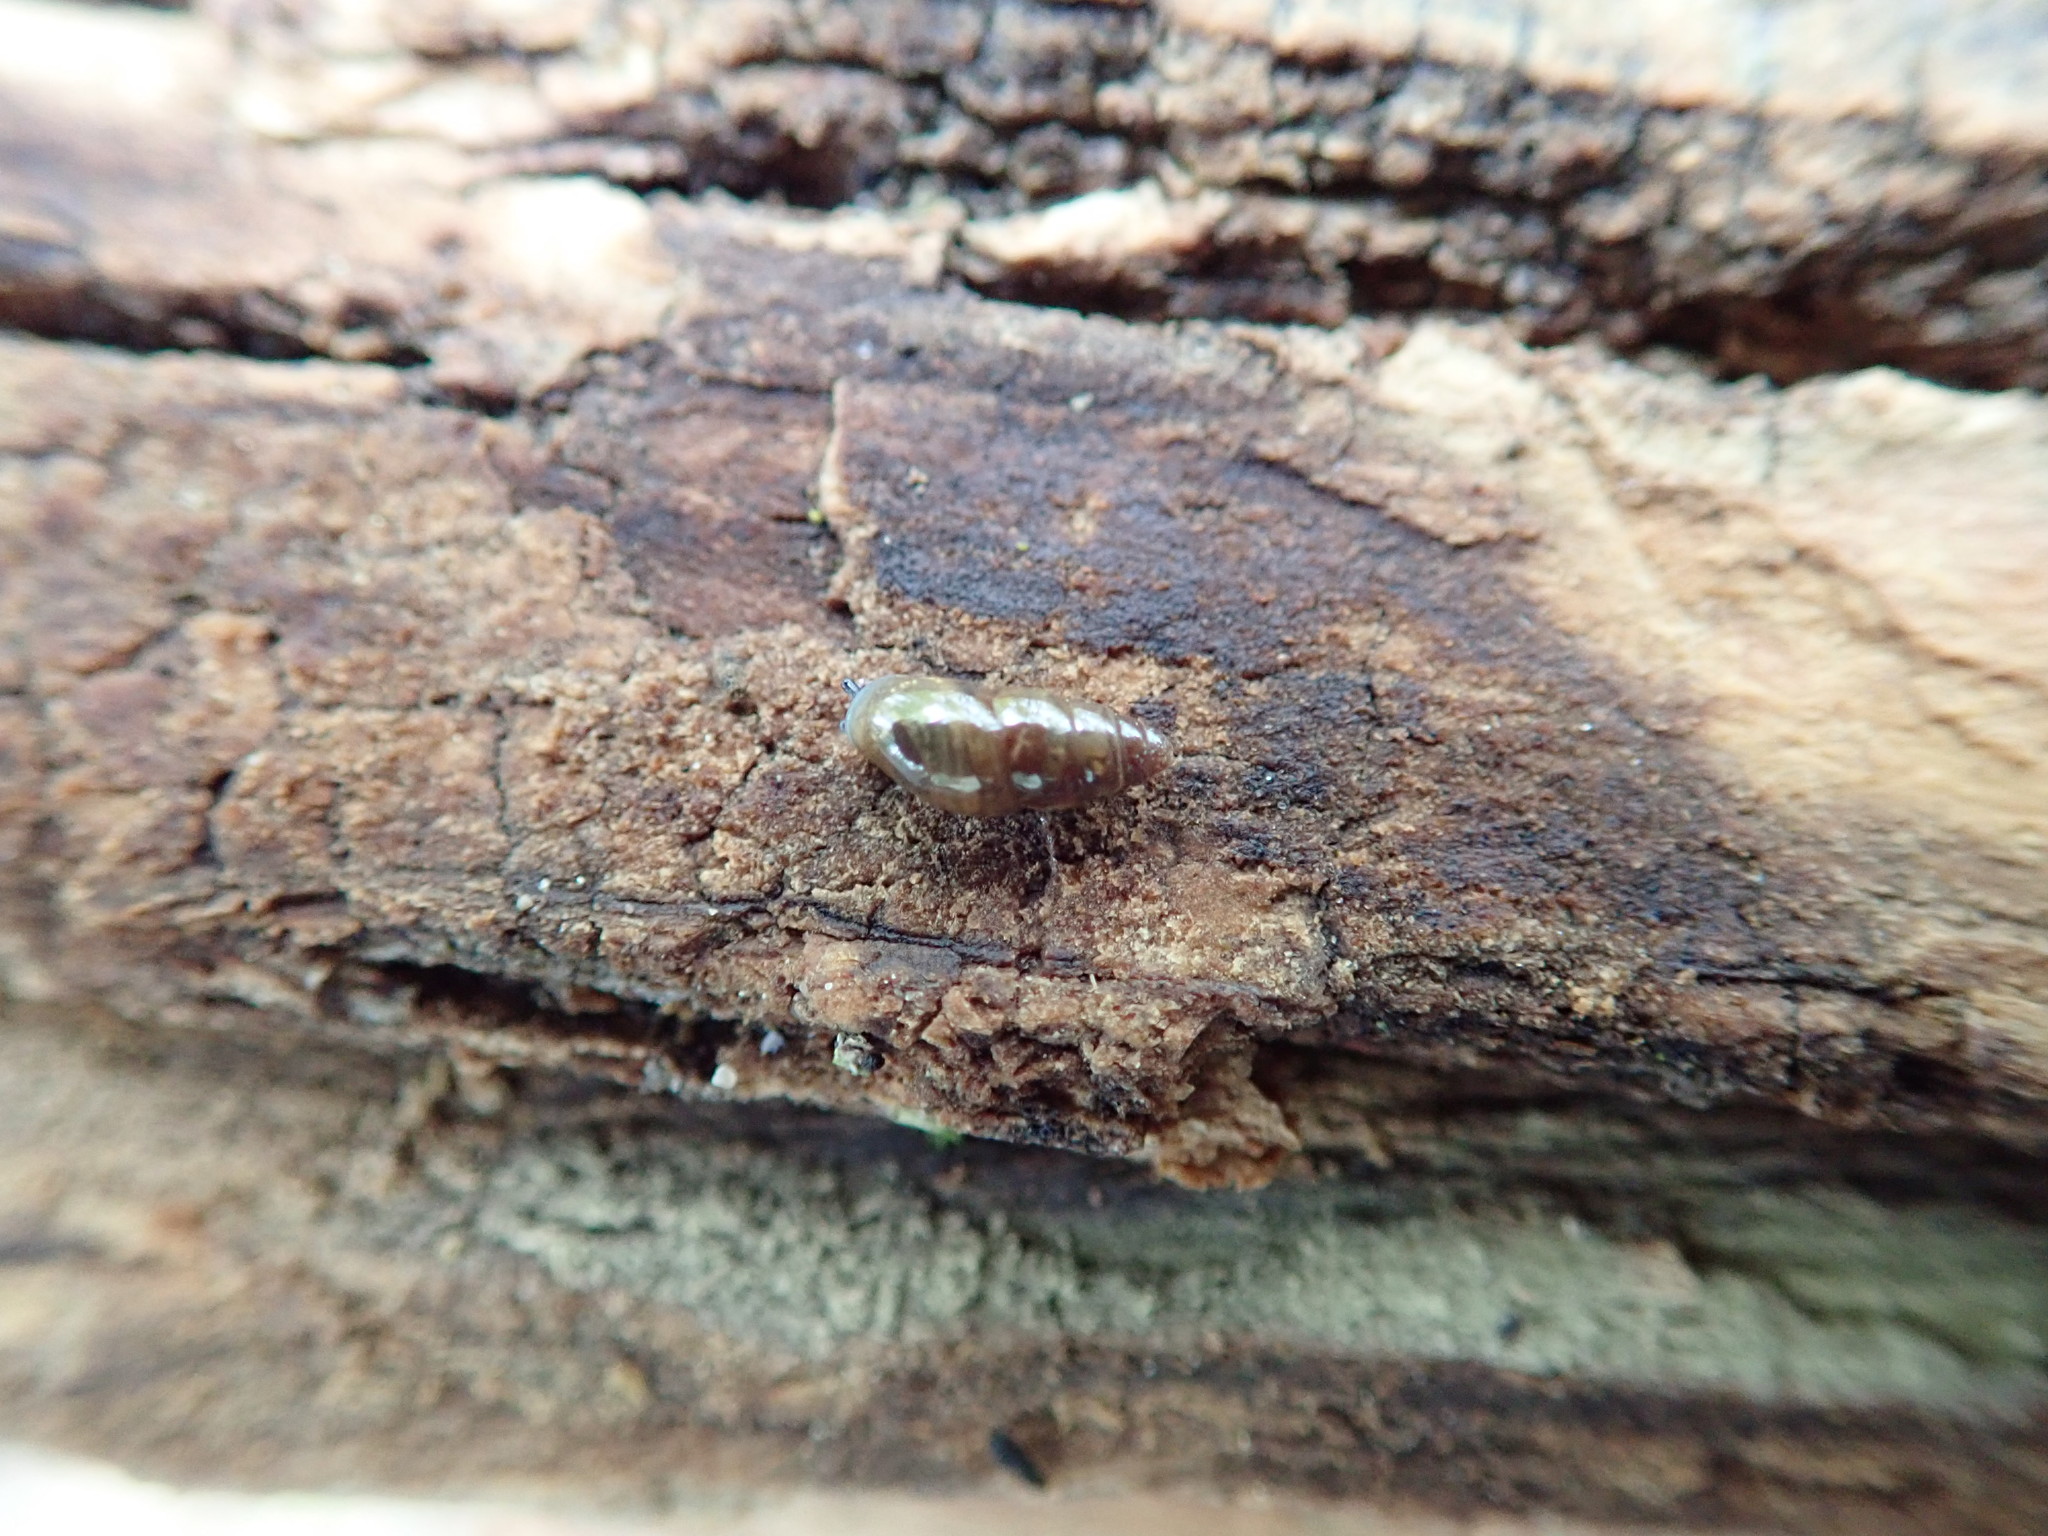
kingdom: Animalia
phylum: Mollusca
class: Gastropoda
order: Stylommatophora
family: Cochlicopidae
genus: Cochlicopa
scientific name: Cochlicopa lubrica
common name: Glossy pillar snail
